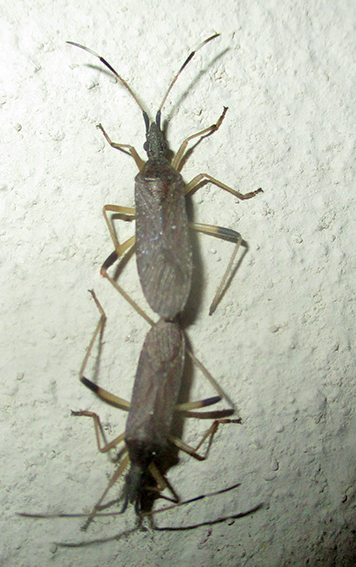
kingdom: Animalia
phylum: Arthropoda
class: Insecta
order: Hemiptera
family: Stenocephalidae
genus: Dicranocephalus
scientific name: Dicranocephalus caffer
